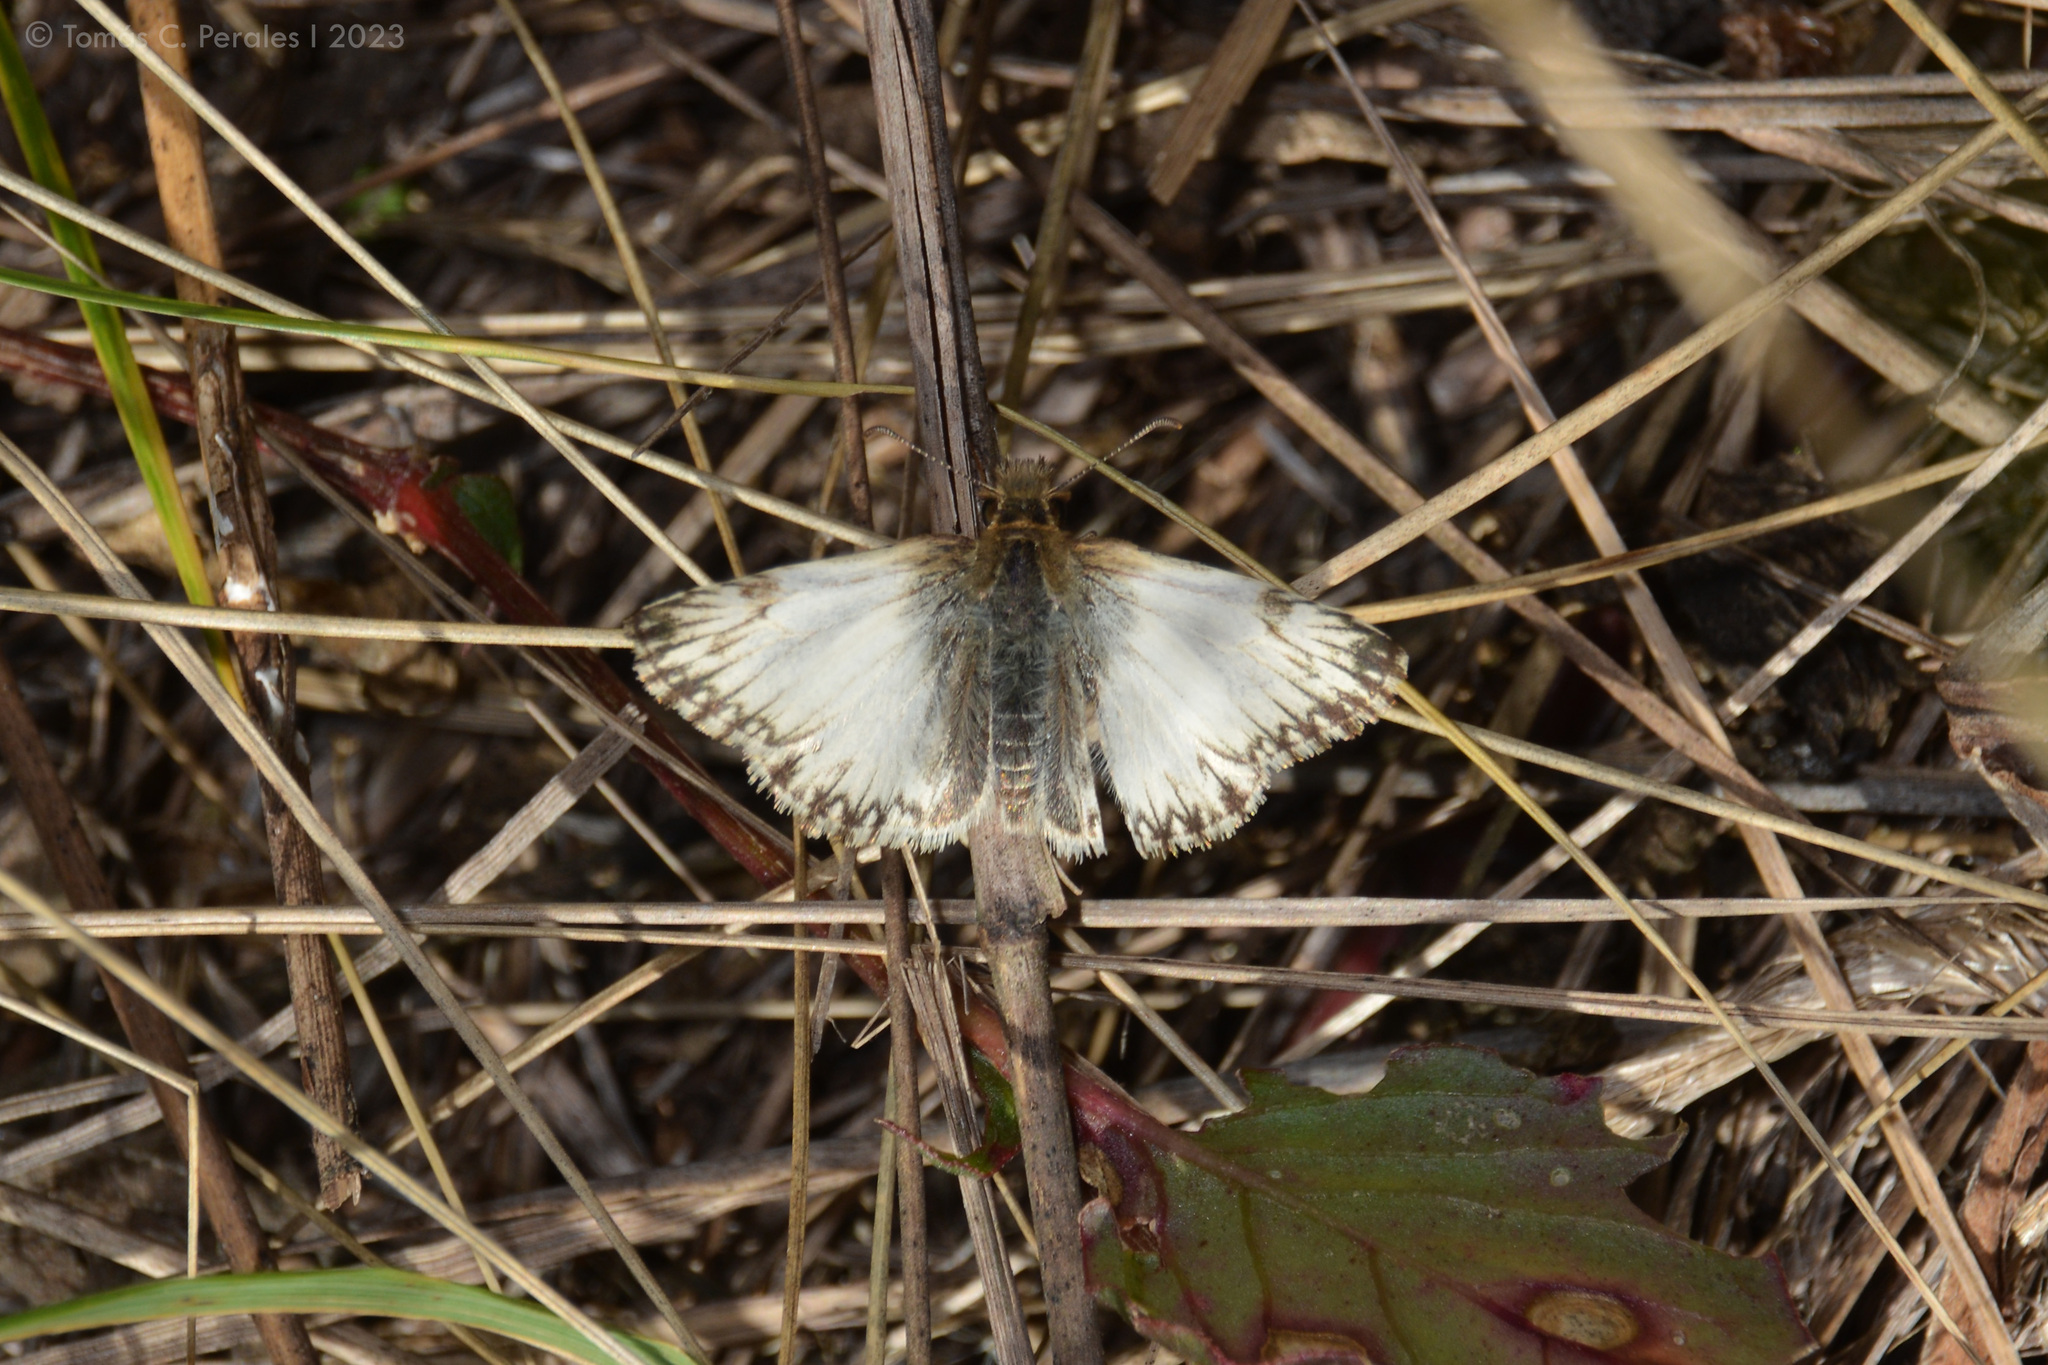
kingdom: Animalia
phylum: Arthropoda
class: Insecta
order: Lepidoptera
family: Hesperiidae
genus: Heliopetes
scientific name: Heliopetes omrina
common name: Stained white-skipper
